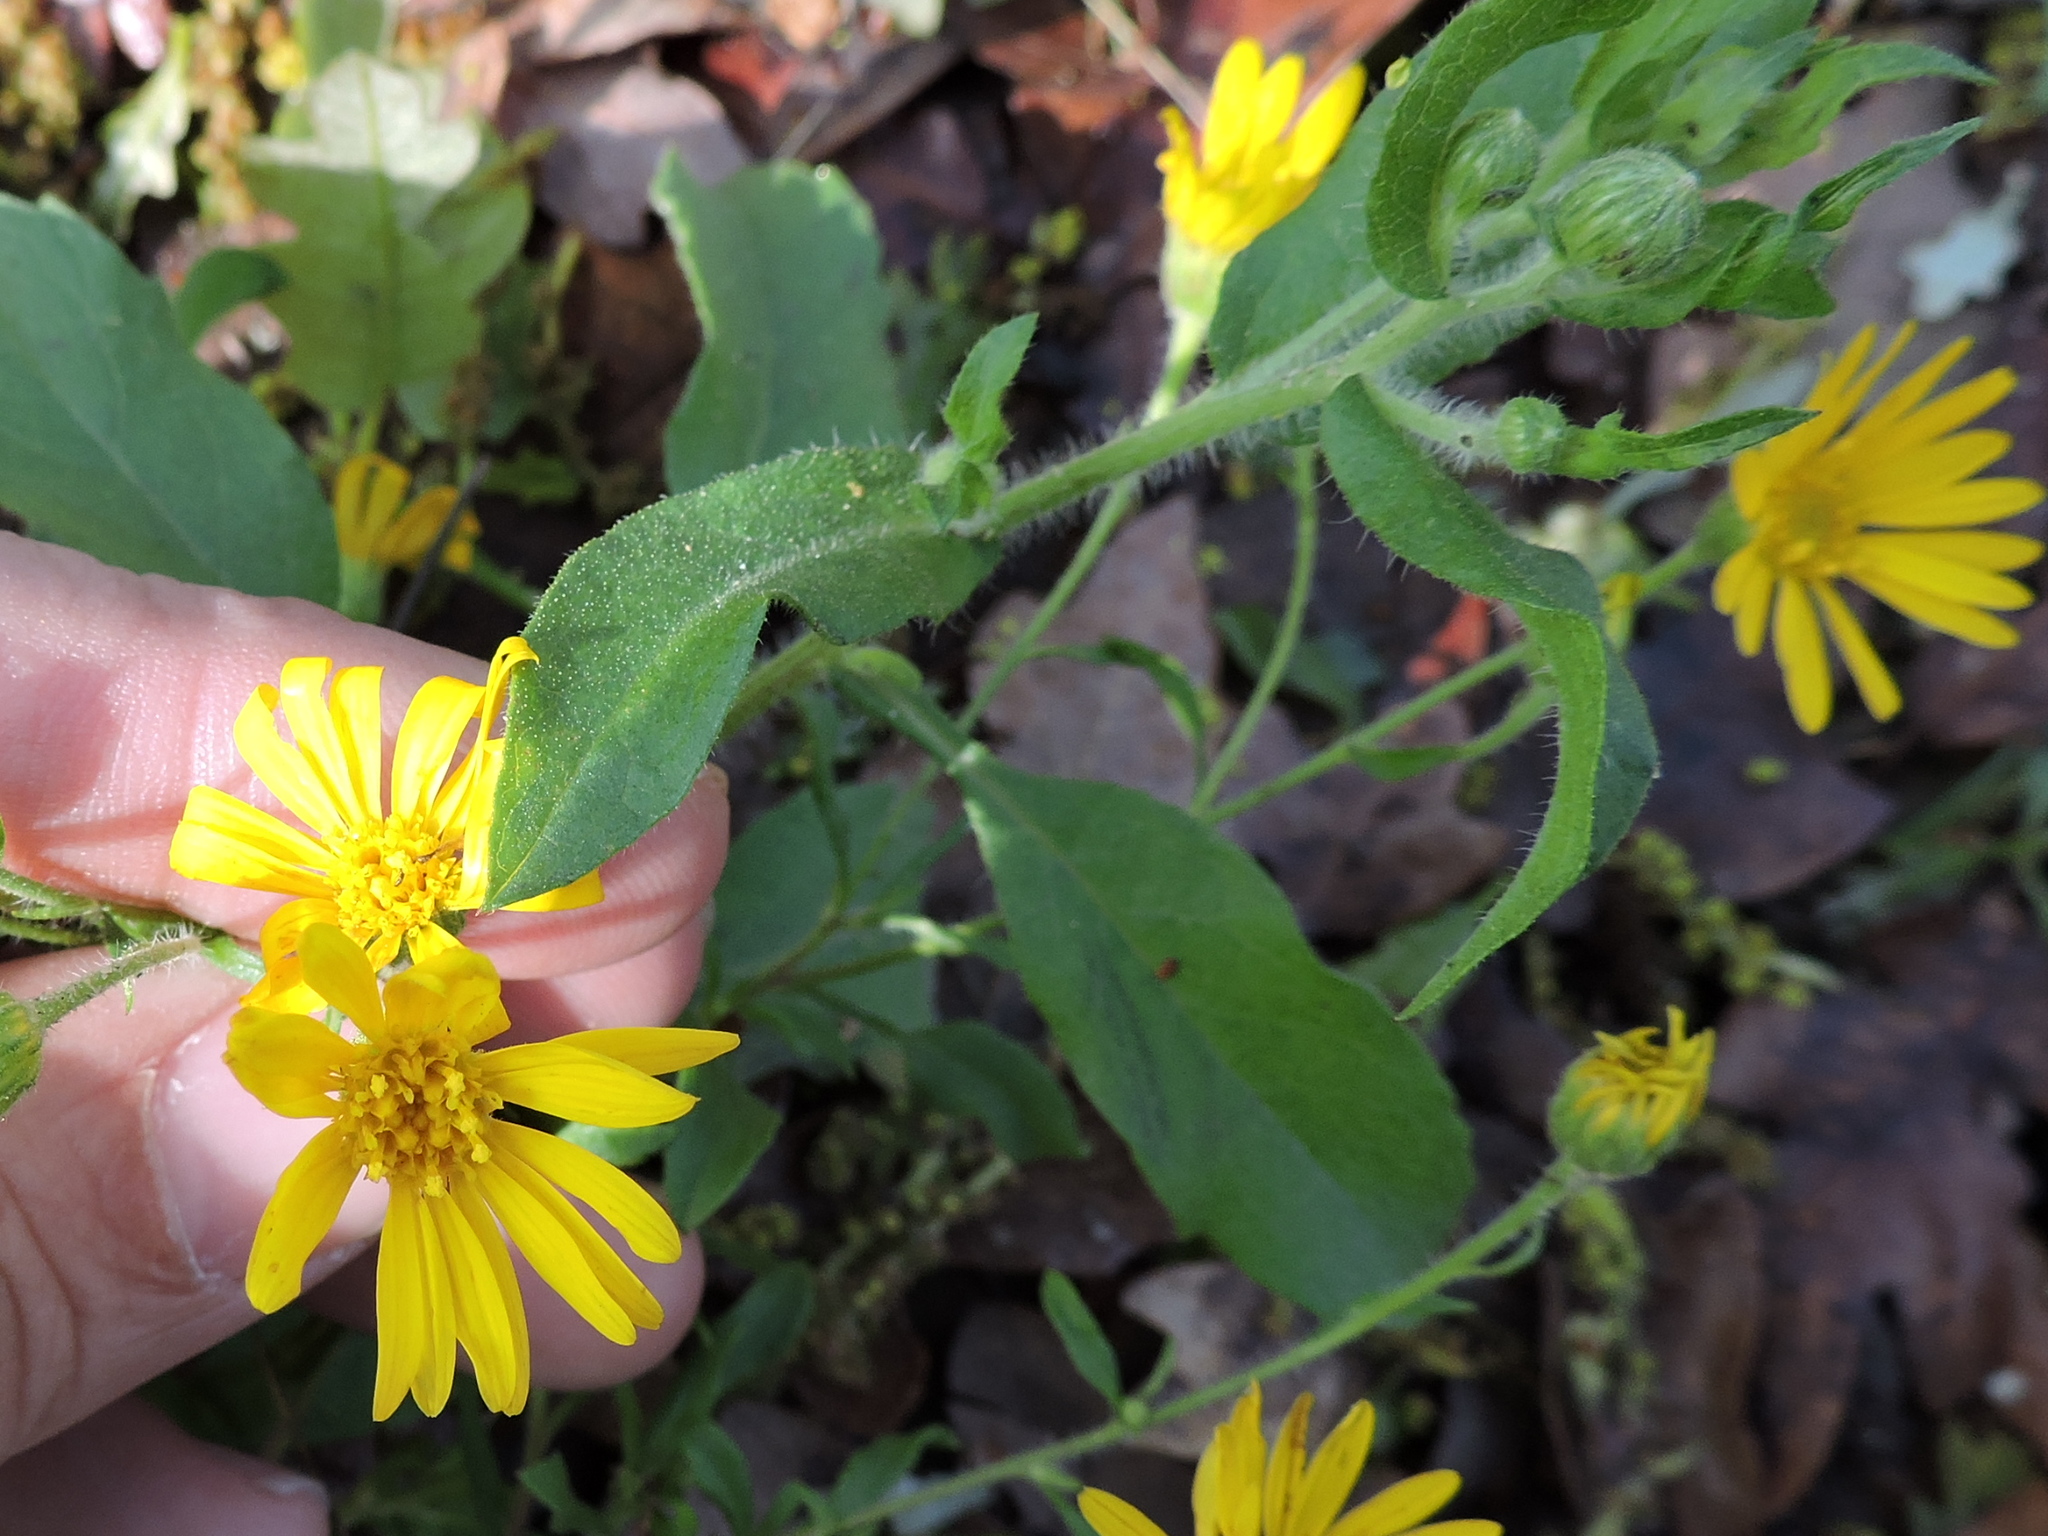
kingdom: Plantae
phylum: Tracheophyta
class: Magnoliopsida
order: Asterales
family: Asteraceae
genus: Heterotheca
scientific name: Heterotheca subaxillaris
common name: Camphorweed
